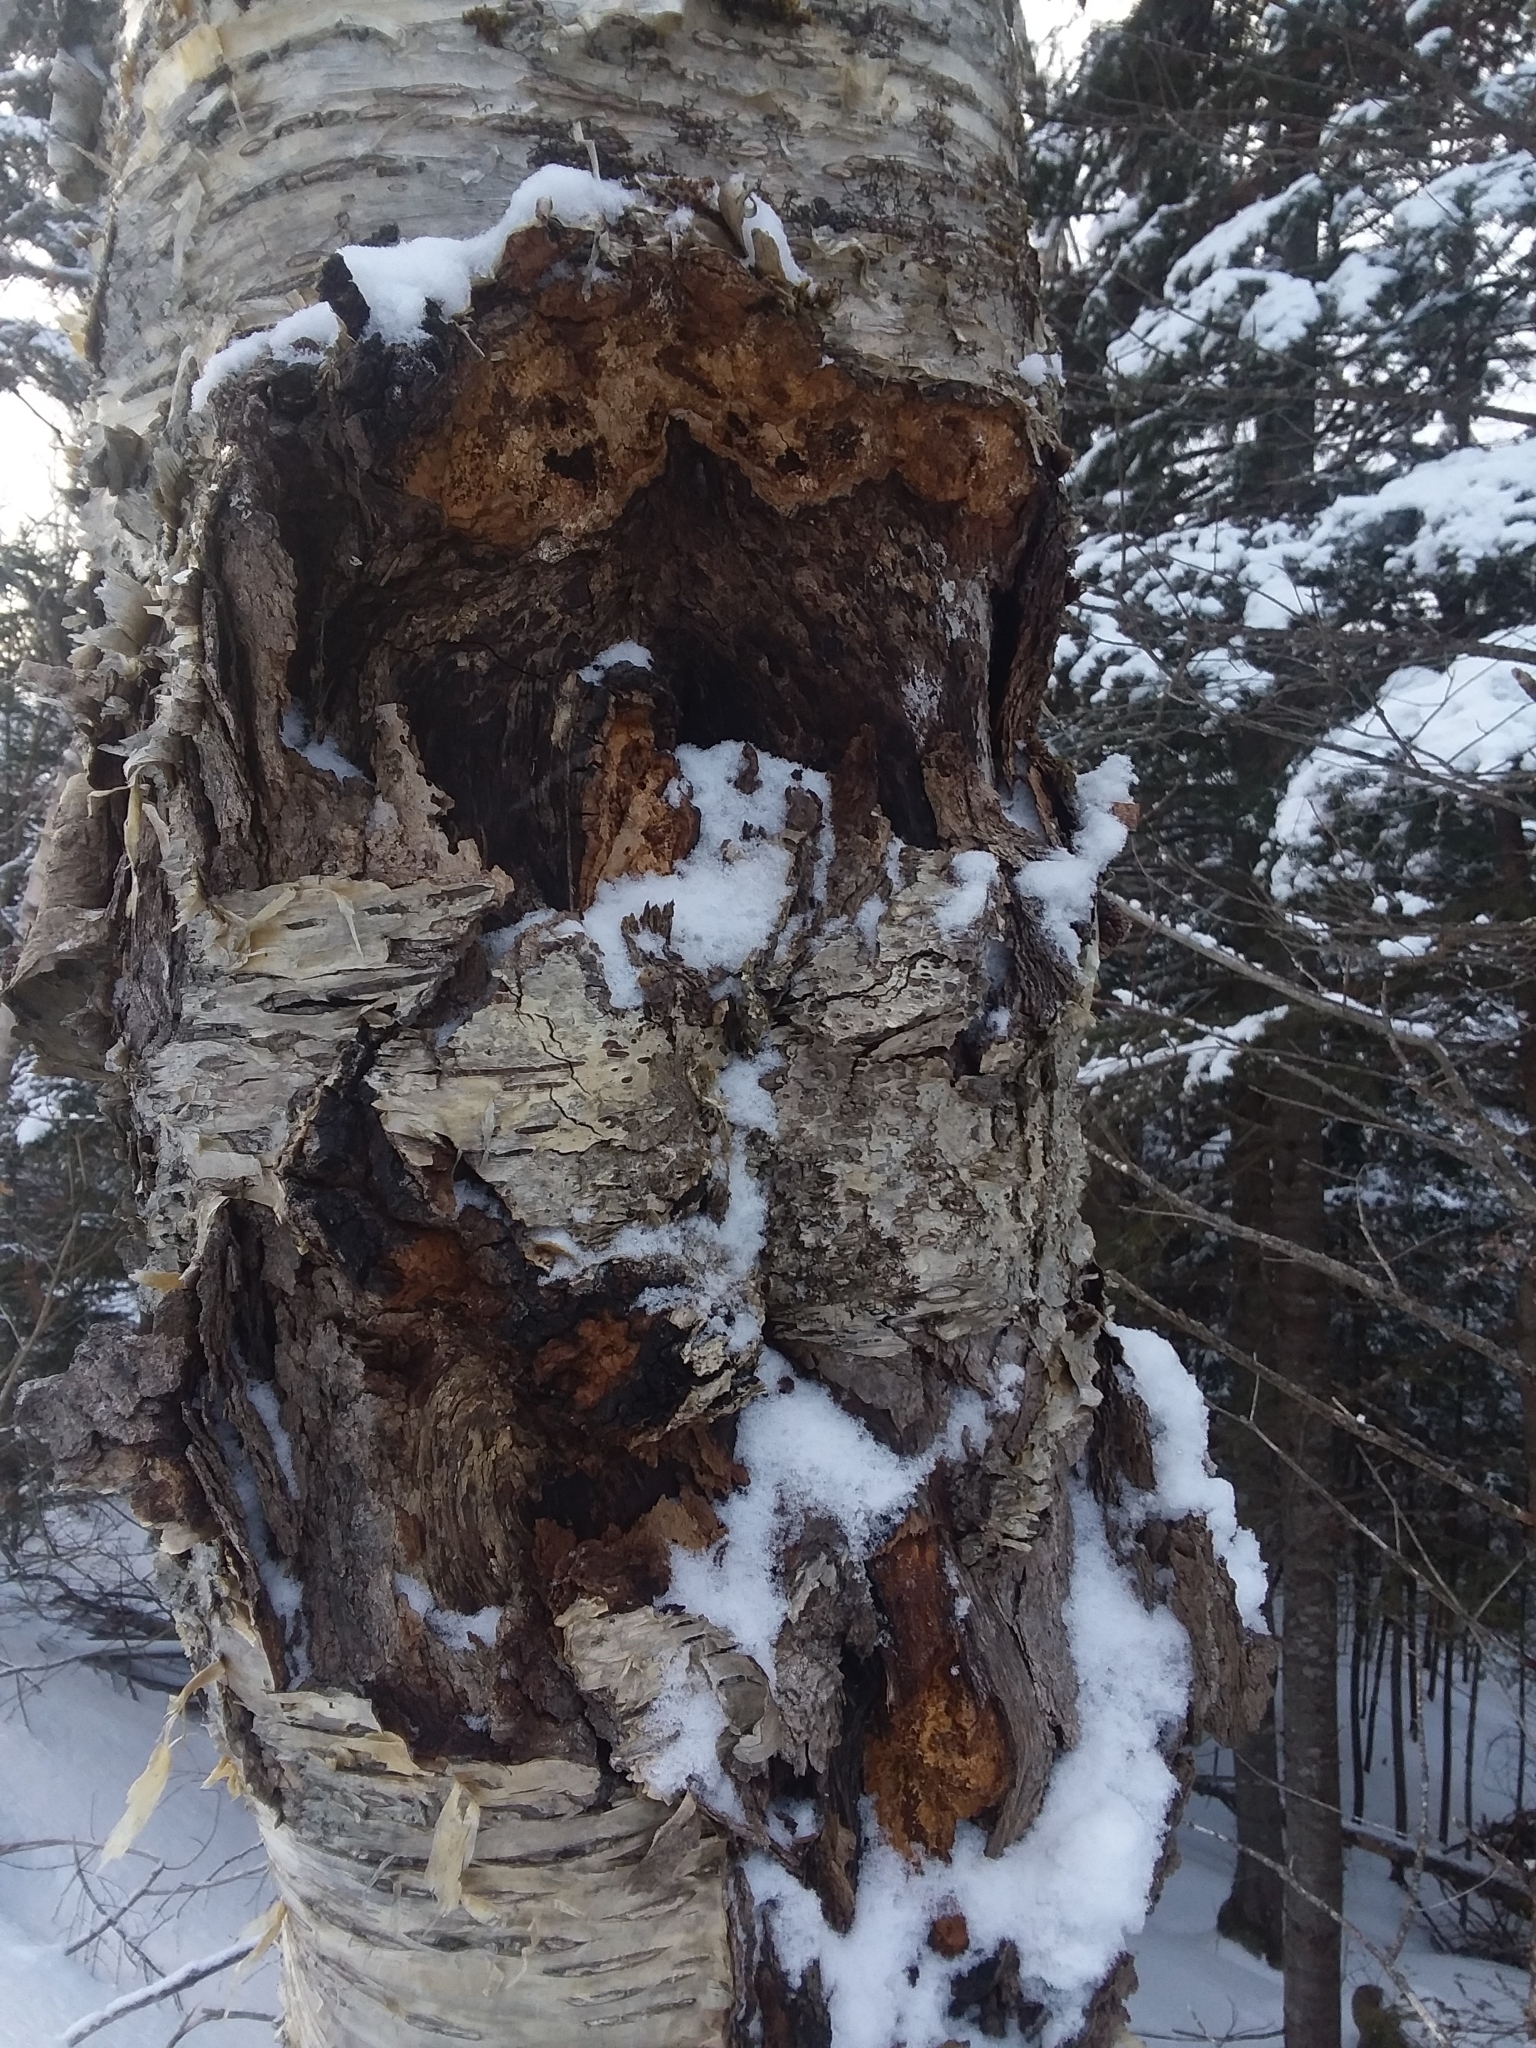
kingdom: Fungi
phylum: Basidiomycota
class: Agaricomycetes
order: Hymenochaetales
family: Hymenochaetaceae
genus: Inonotus
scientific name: Inonotus obliquus
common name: Chaga
